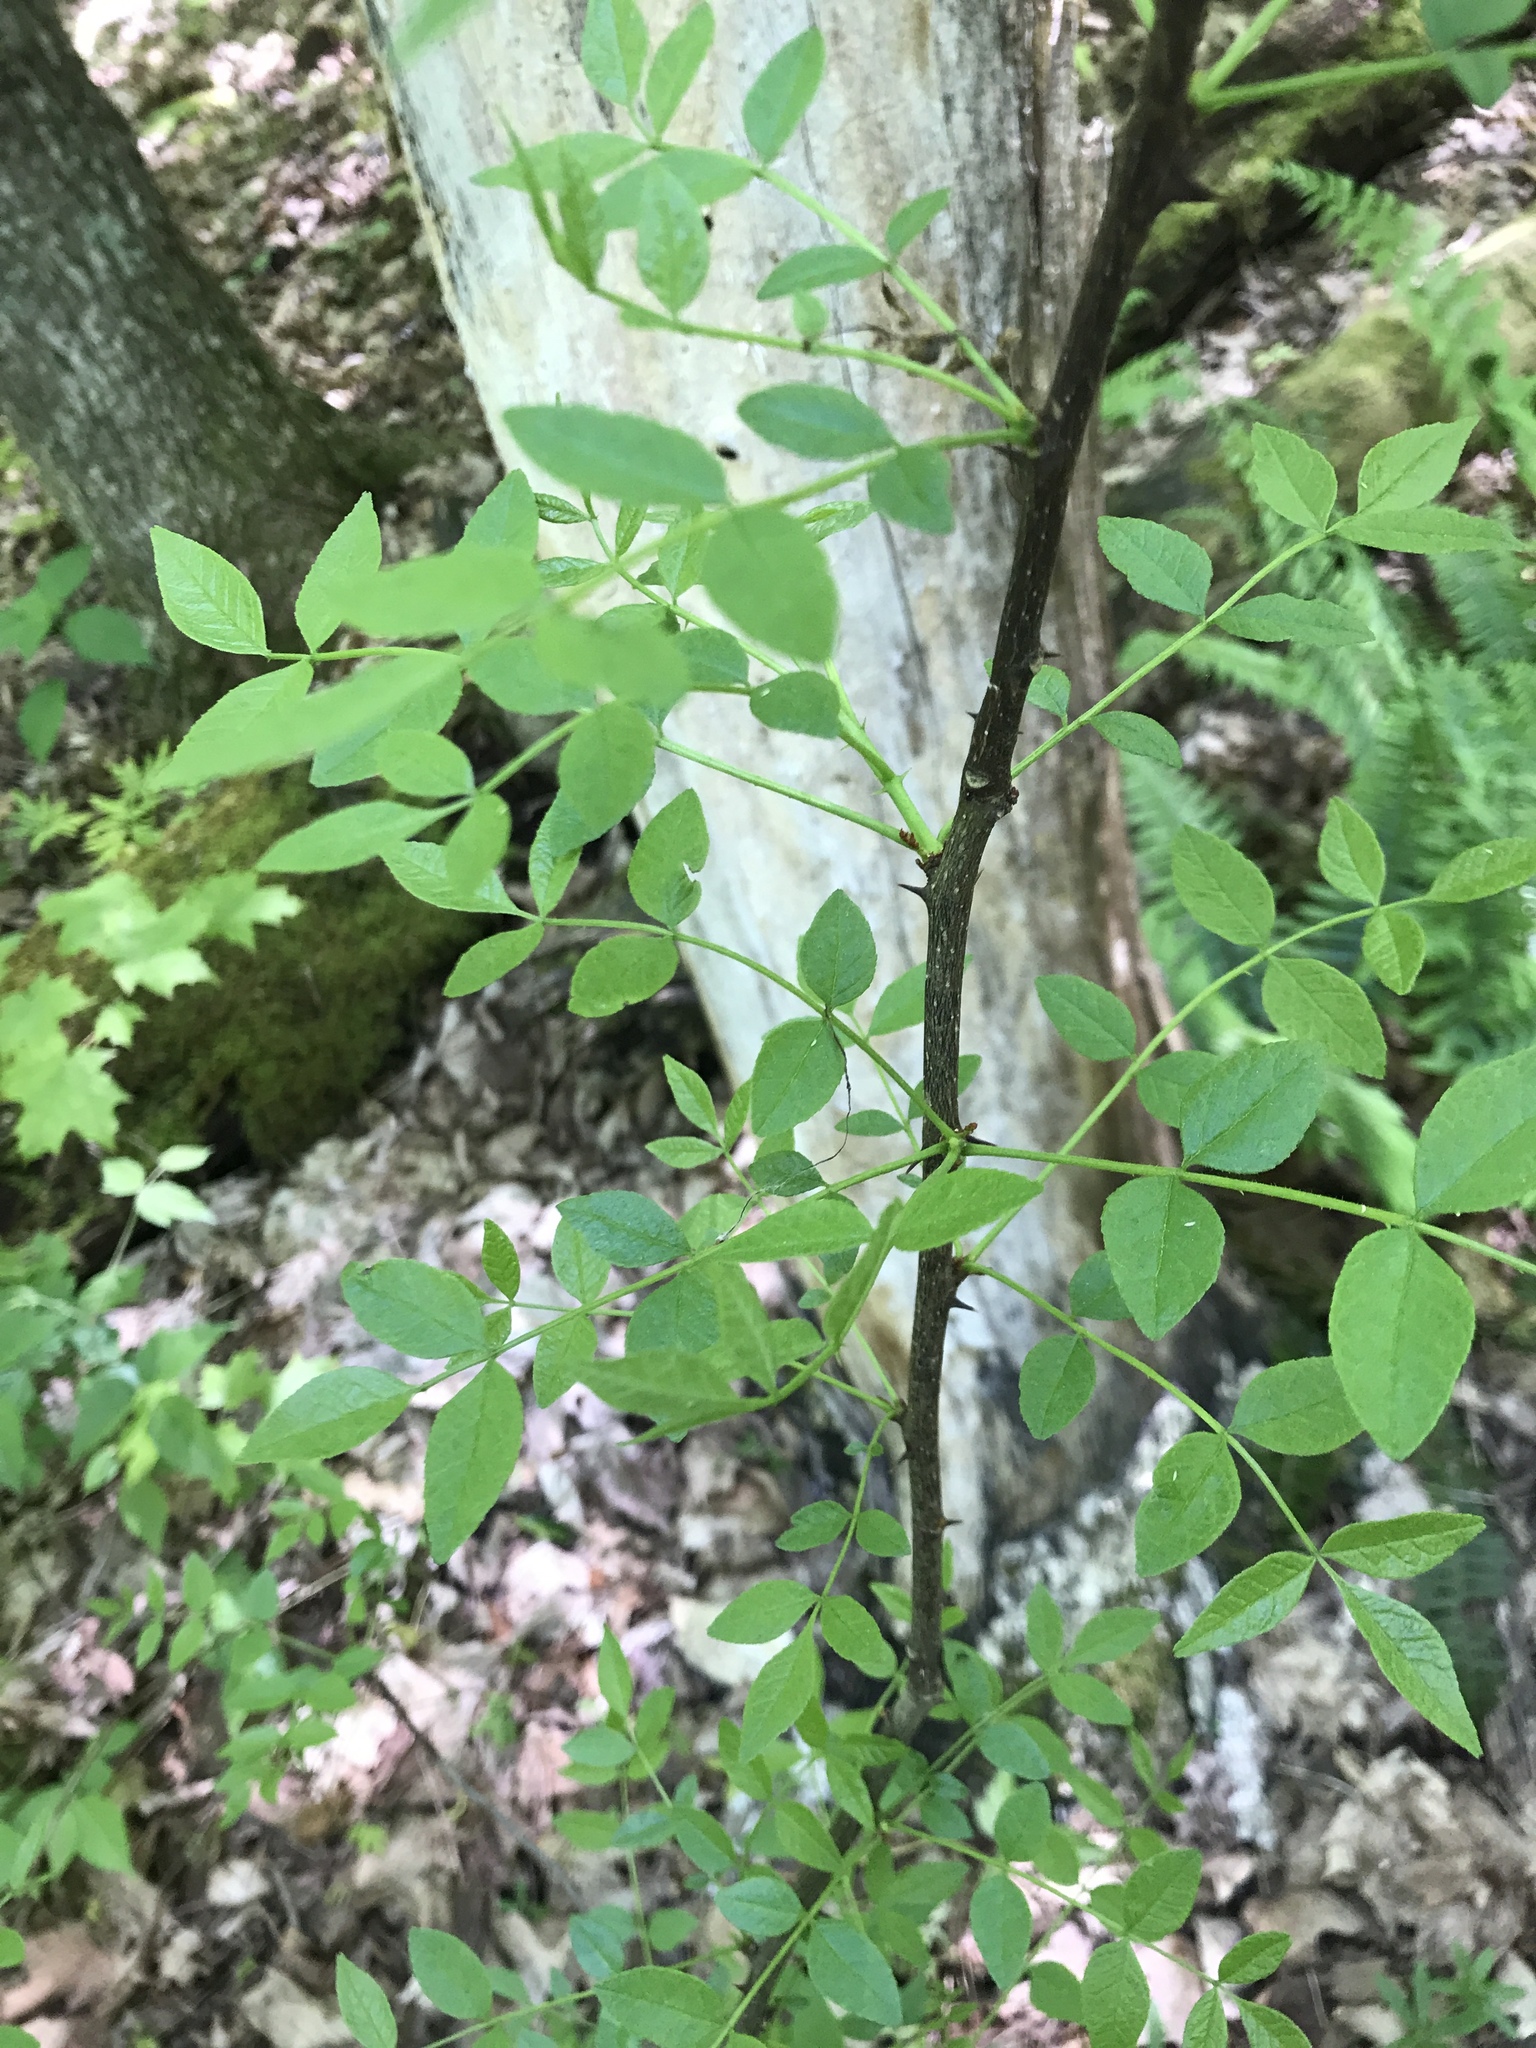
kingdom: Plantae
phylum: Tracheophyta
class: Magnoliopsida
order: Sapindales
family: Rutaceae
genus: Zanthoxylum
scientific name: Zanthoxylum americanum
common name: Northern prickly-ash
